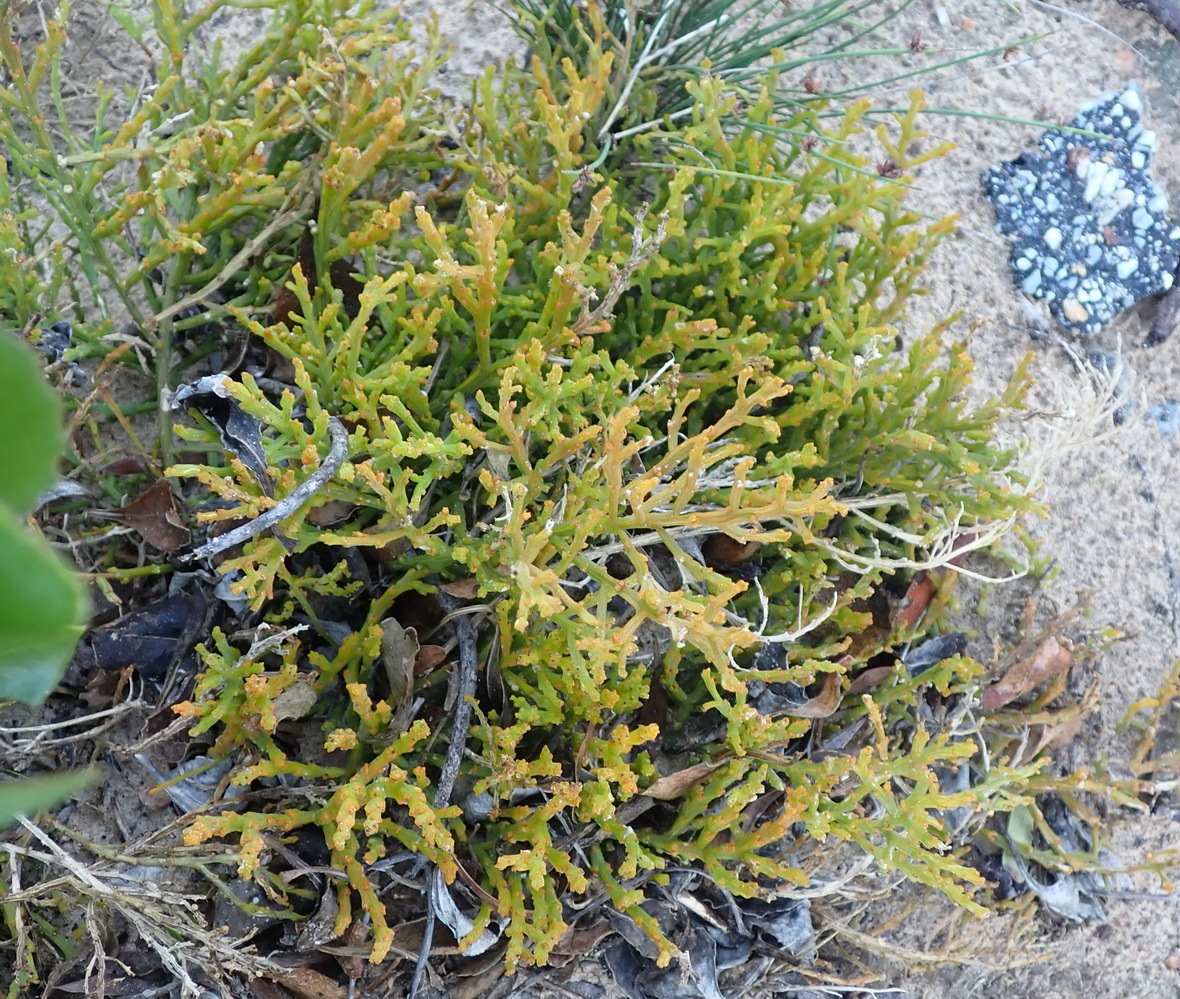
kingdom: Plantae
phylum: Tracheophyta
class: Magnoliopsida
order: Santalales
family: Thesiaceae
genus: Thesium
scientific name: Thesium fragile
